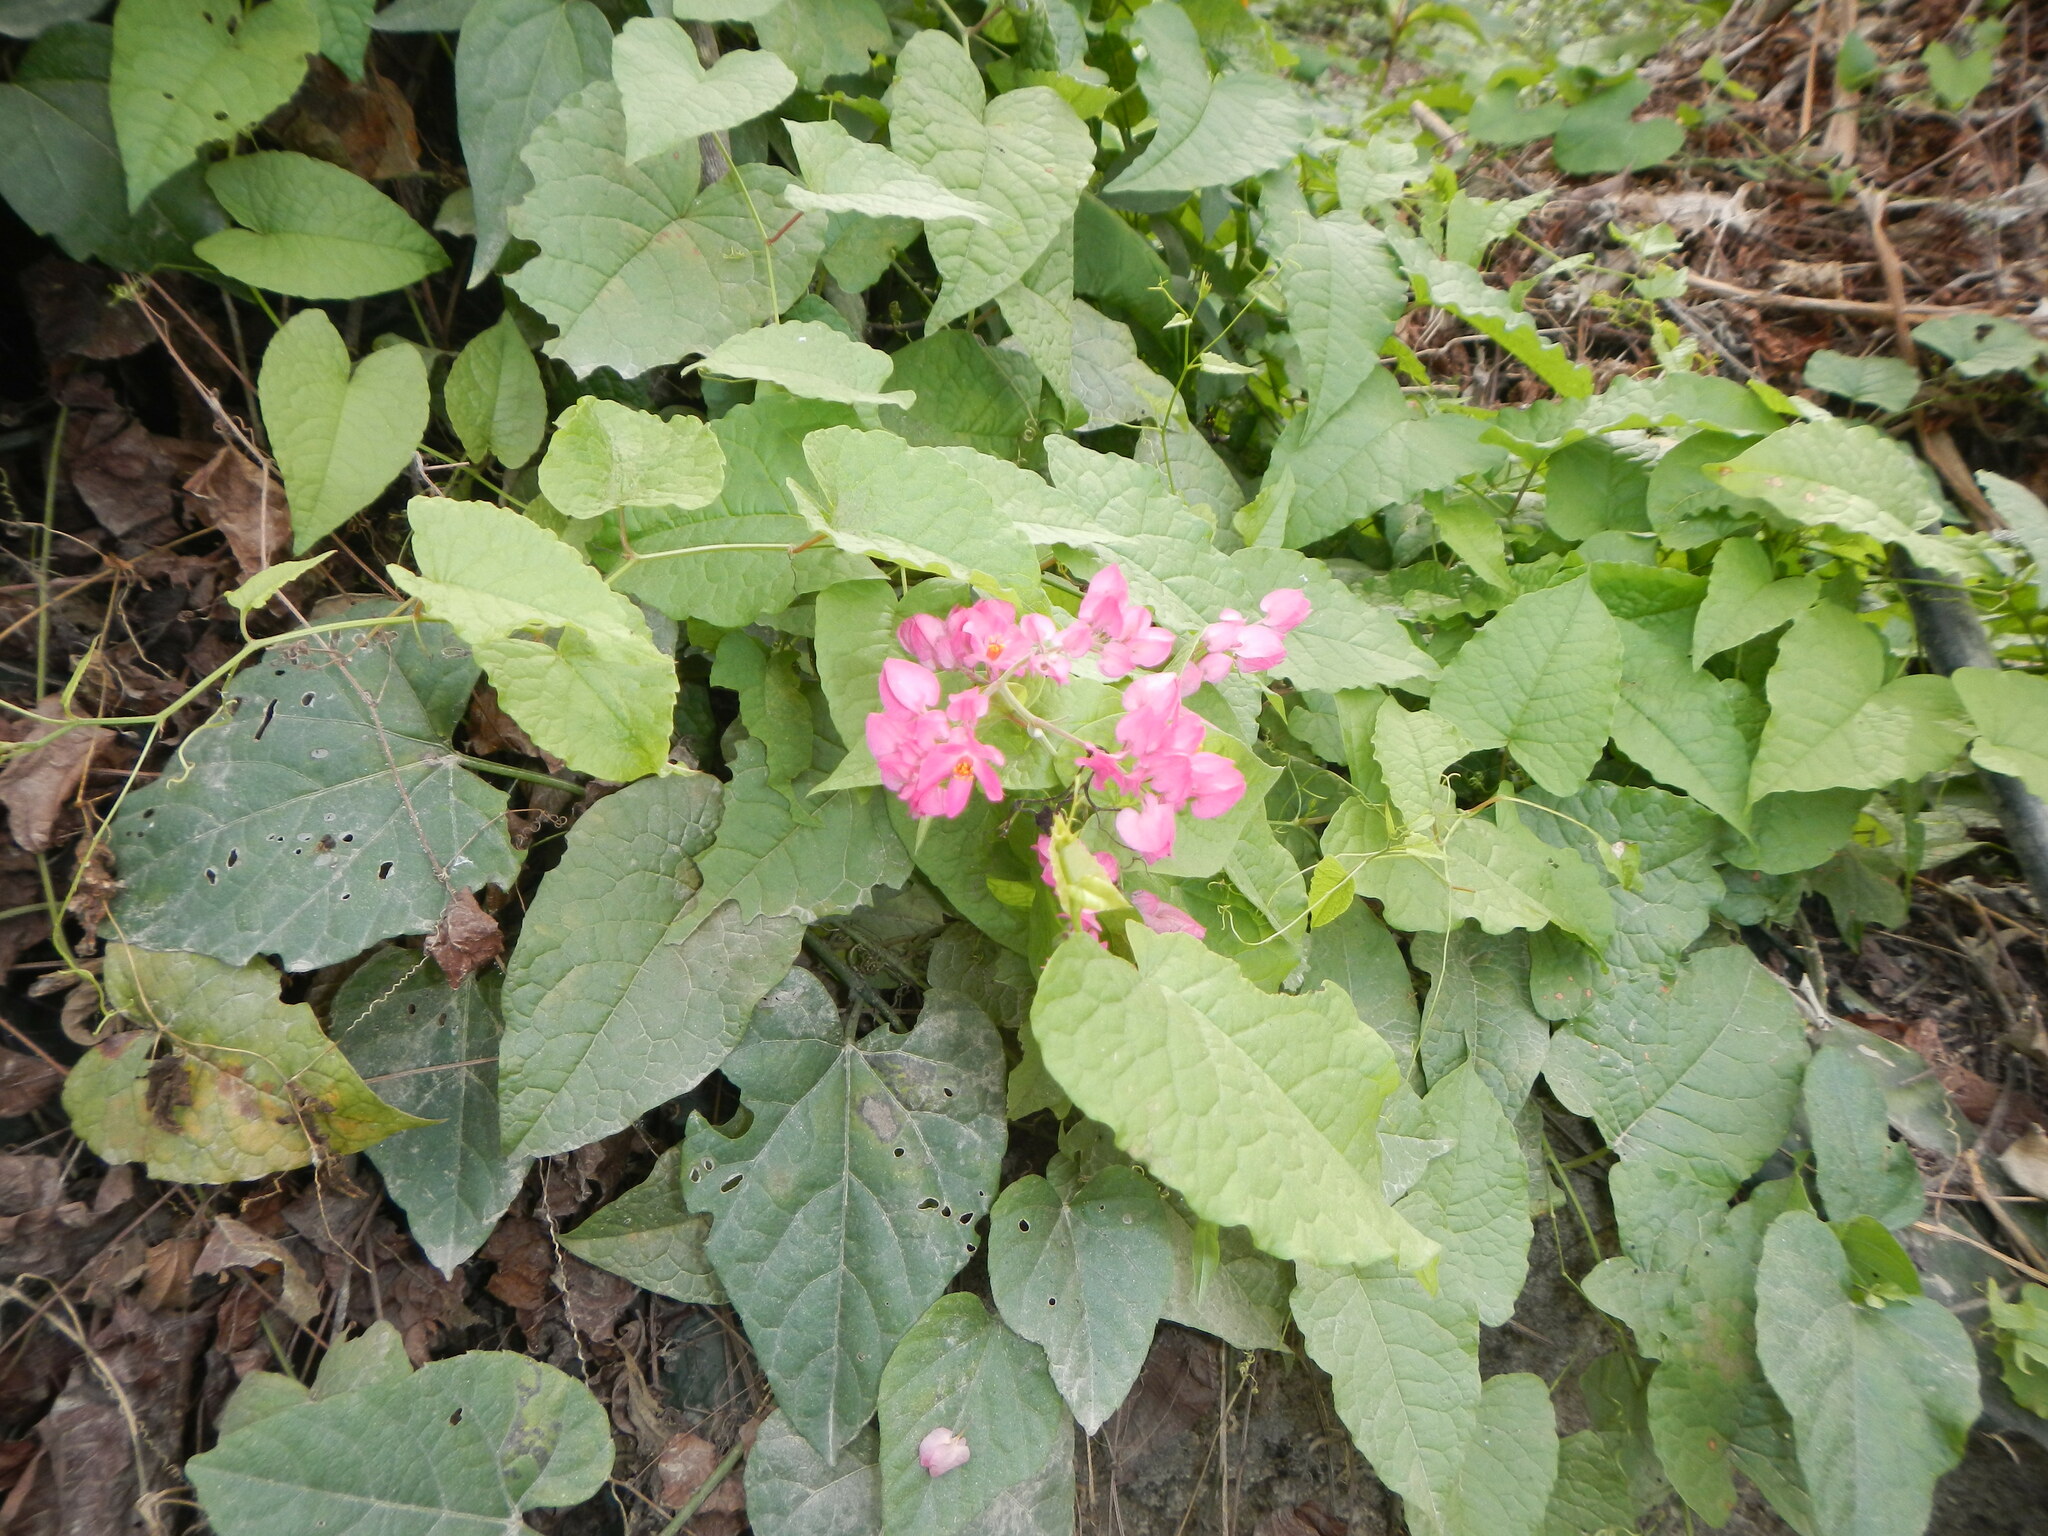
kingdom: Plantae
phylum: Tracheophyta
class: Magnoliopsida
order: Caryophyllales
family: Polygonaceae
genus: Antigonon
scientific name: Antigonon leptopus
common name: Coral vine
